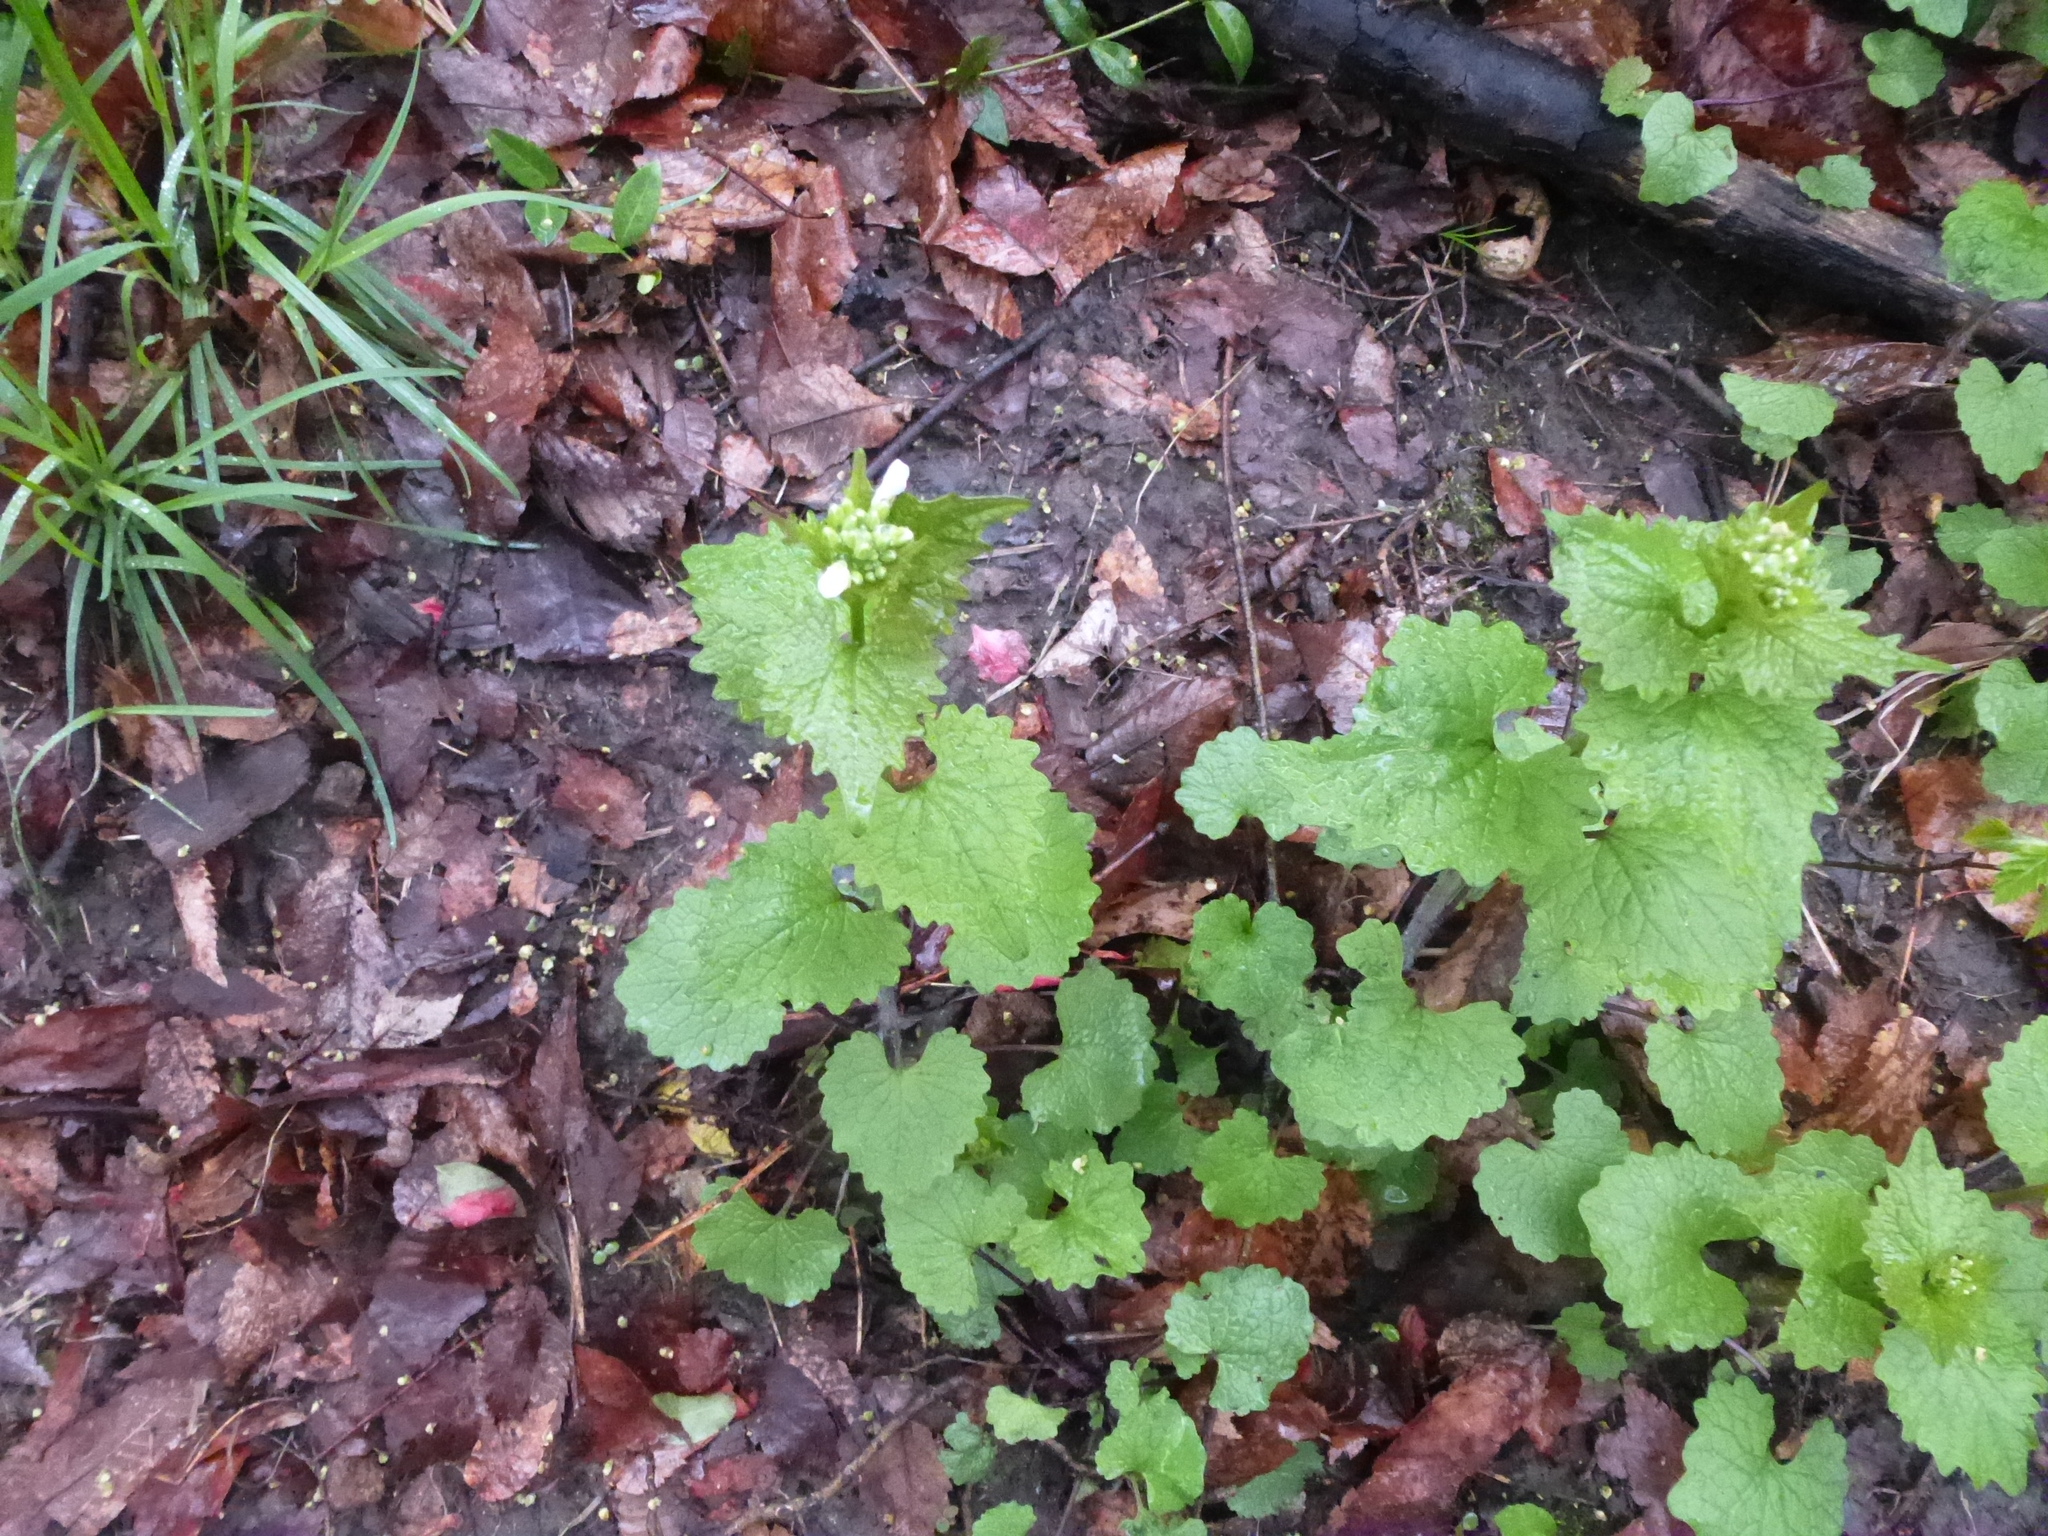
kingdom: Plantae
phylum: Tracheophyta
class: Magnoliopsida
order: Brassicales
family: Brassicaceae
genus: Alliaria
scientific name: Alliaria petiolata
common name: Garlic mustard
